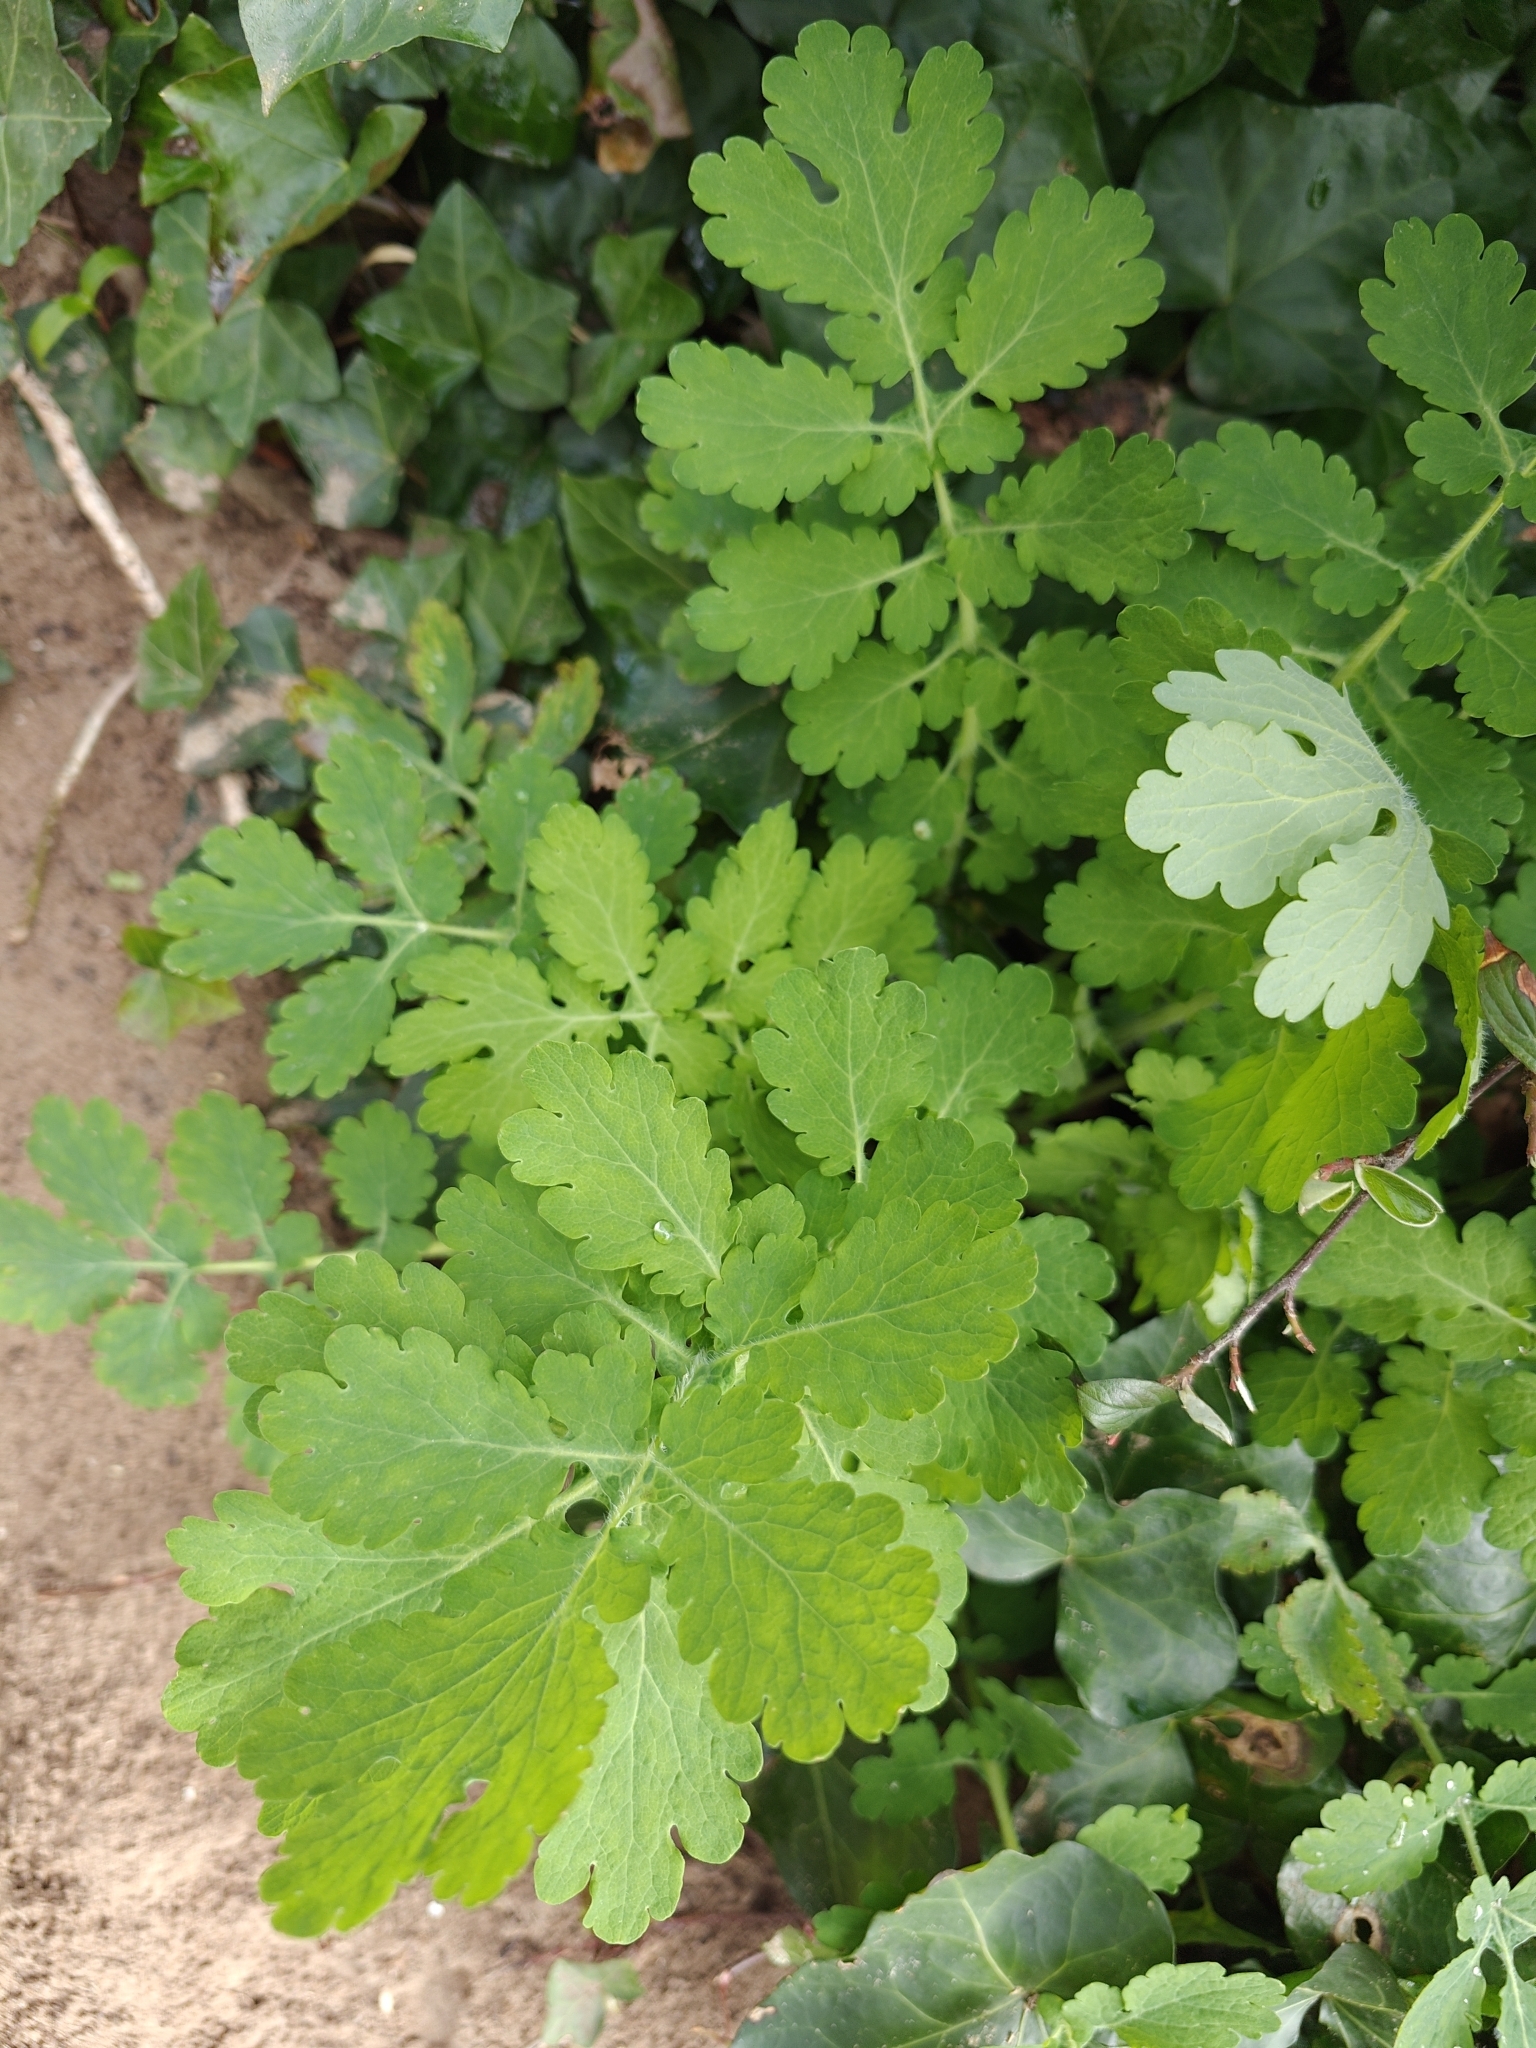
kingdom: Plantae
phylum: Tracheophyta
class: Magnoliopsida
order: Ranunculales
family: Papaveraceae
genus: Chelidonium
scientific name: Chelidonium majus
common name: Greater celandine
